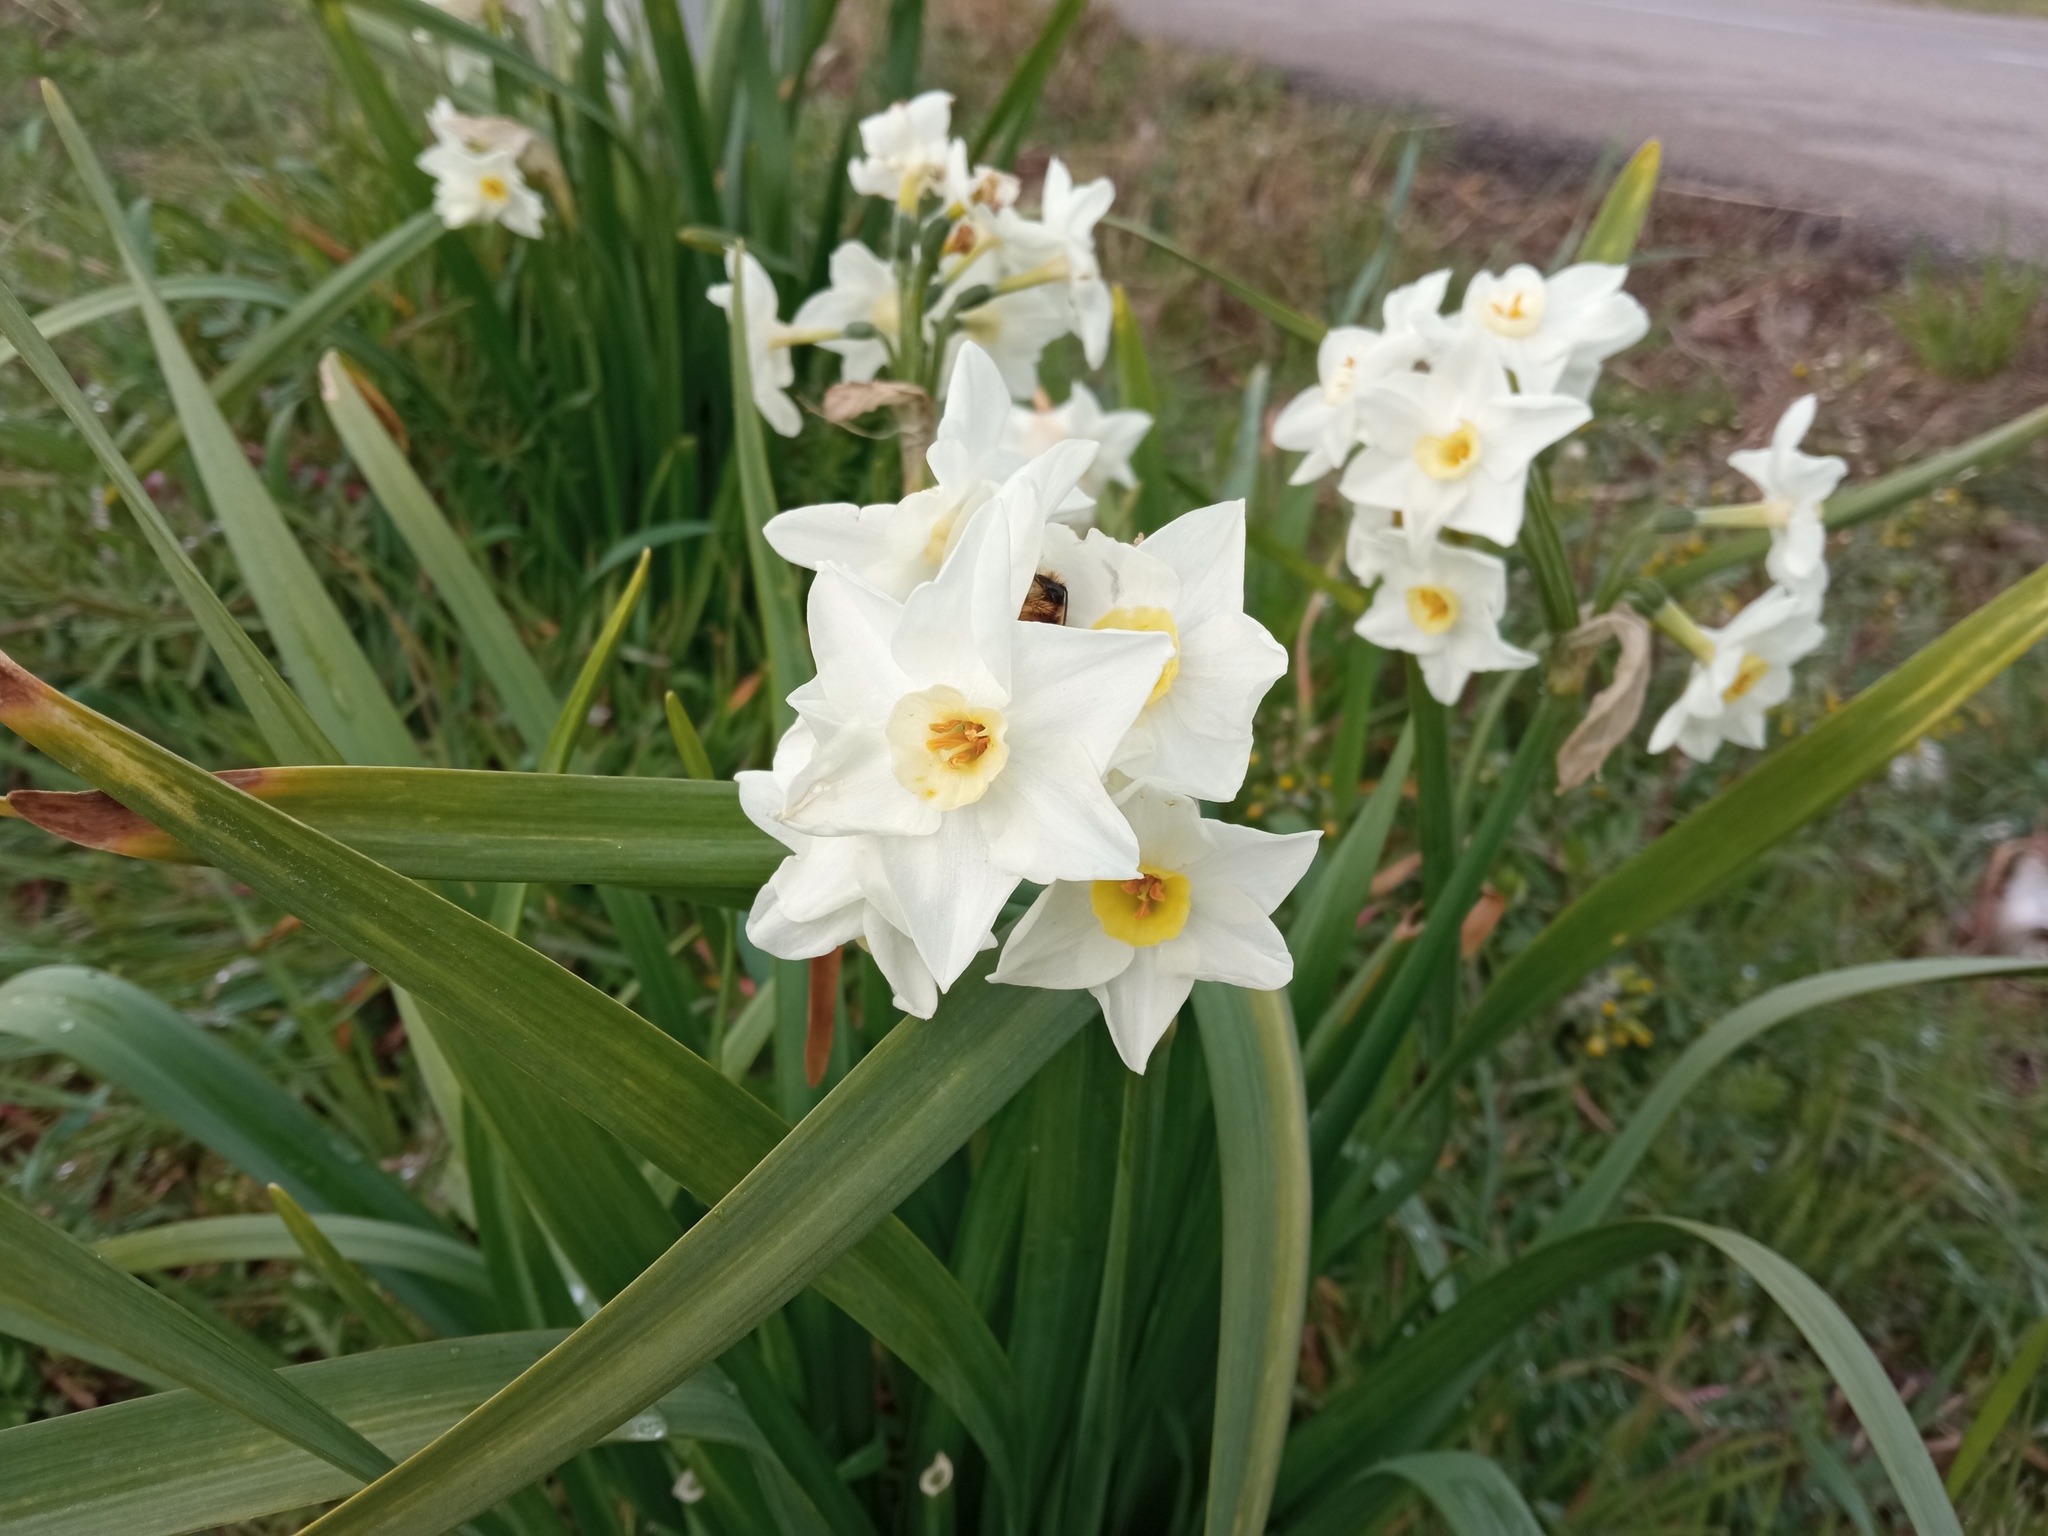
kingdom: Plantae
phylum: Tracheophyta
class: Liliopsida
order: Asparagales
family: Amaryllidaceae
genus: Narcissus
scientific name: Narcissus tazetta
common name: Bunch-flowered daffodil
